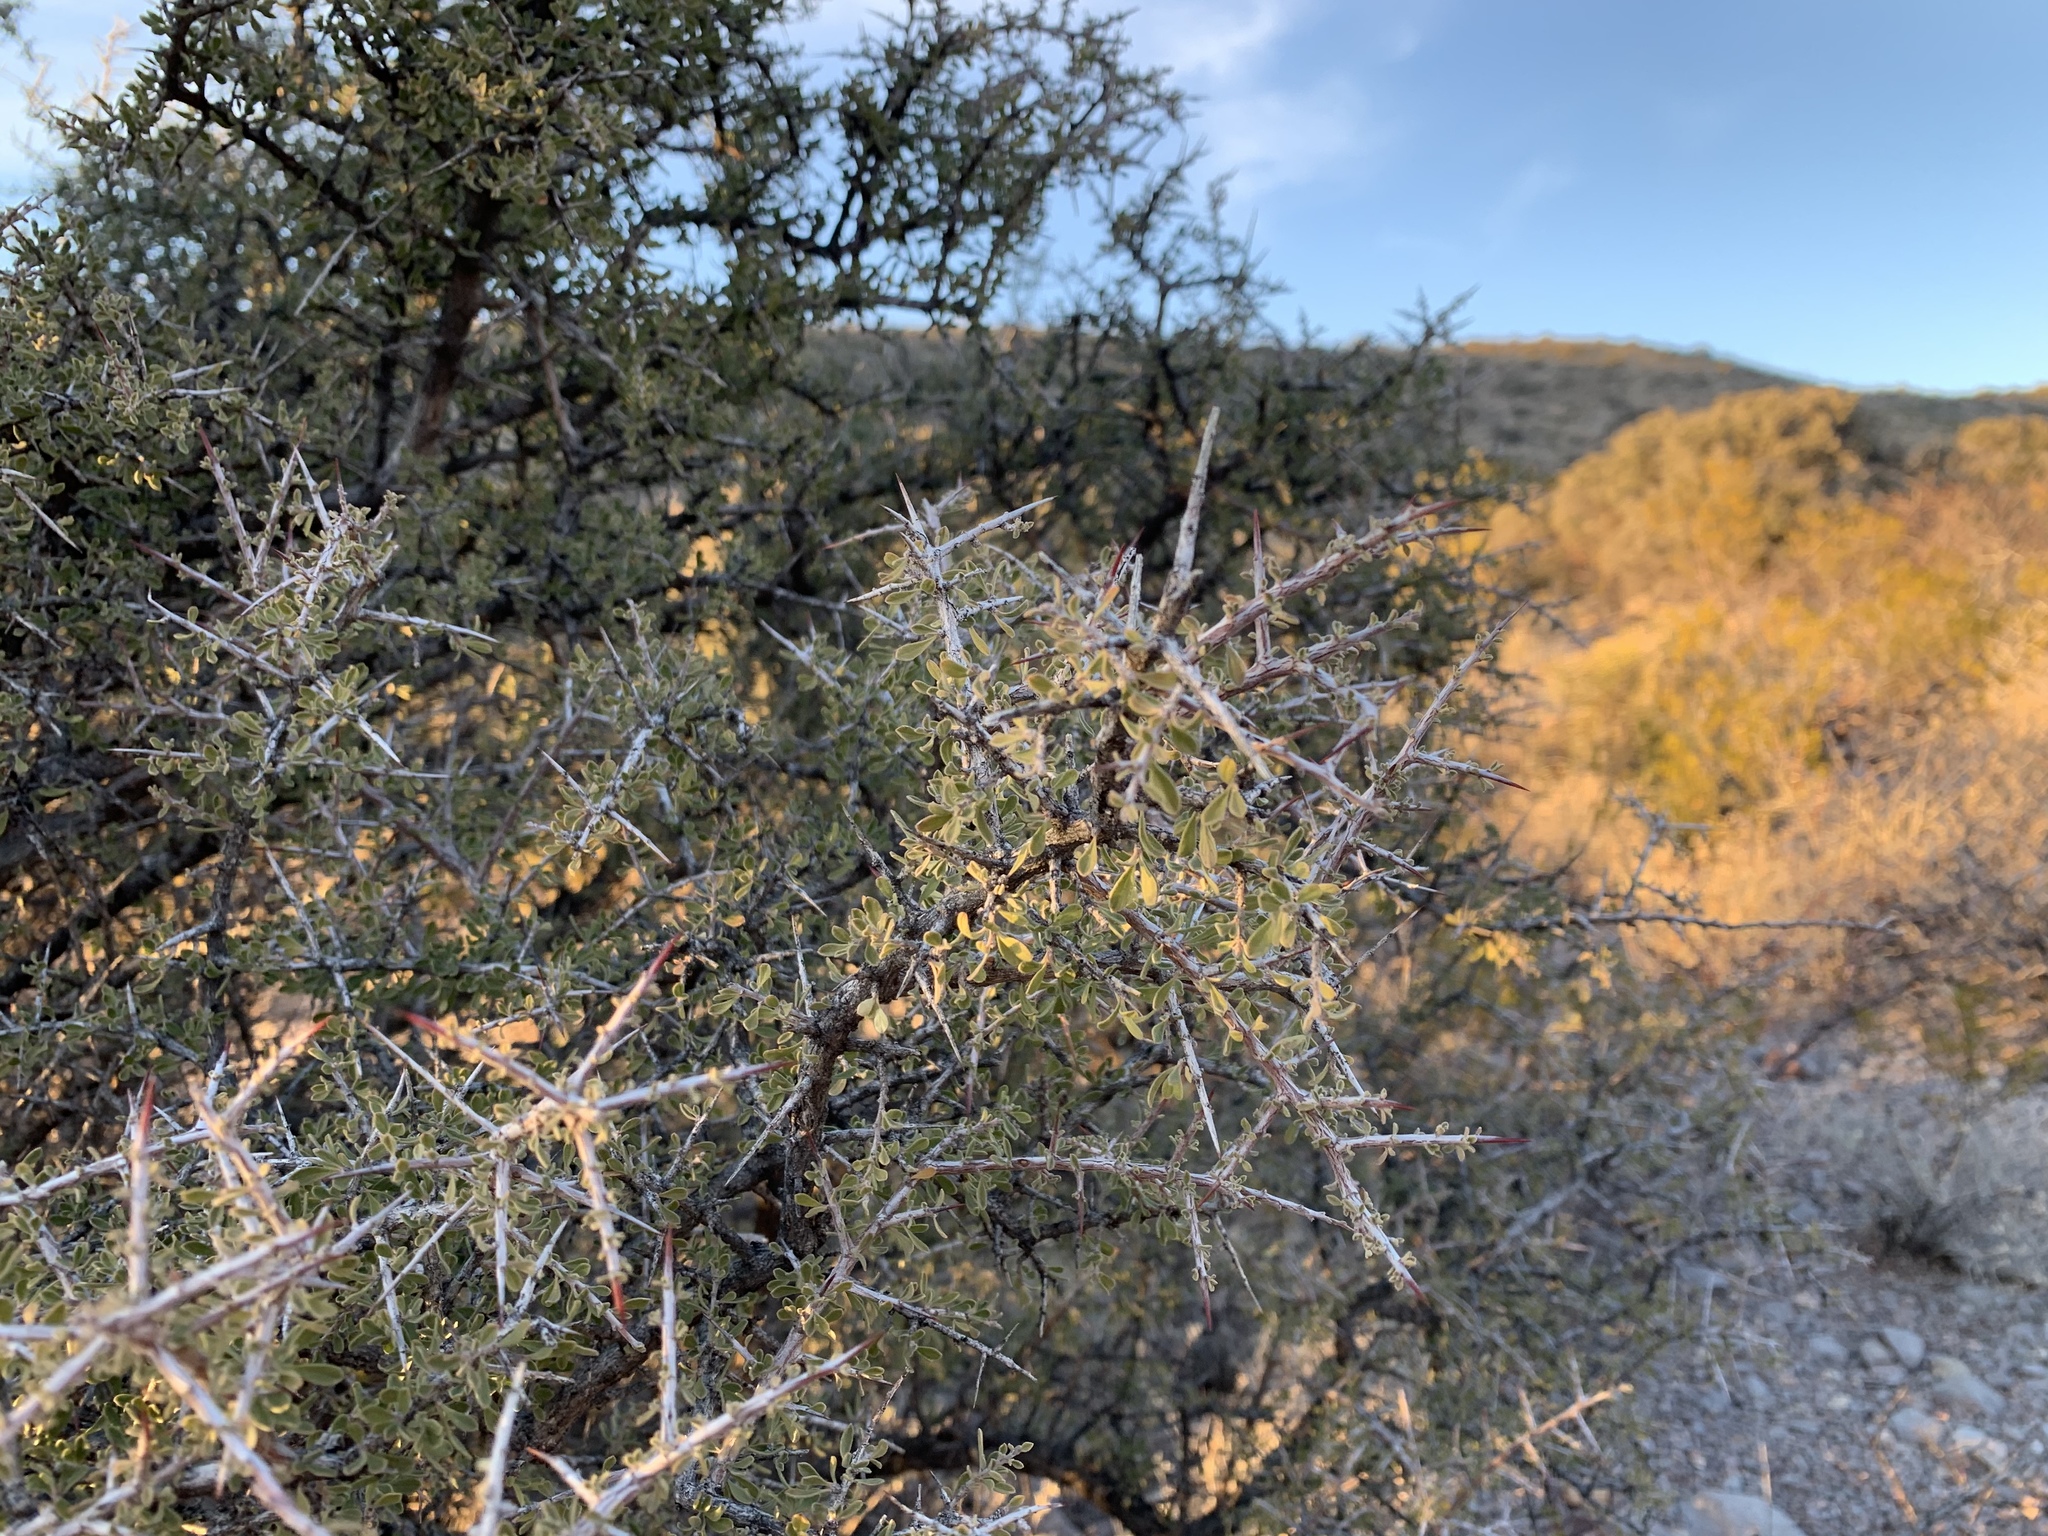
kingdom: Plantae
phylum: Tracheophyta
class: Magnoliopsida
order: Rosales
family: Rhamnaceae
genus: Condalia
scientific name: Condalia warnockii
